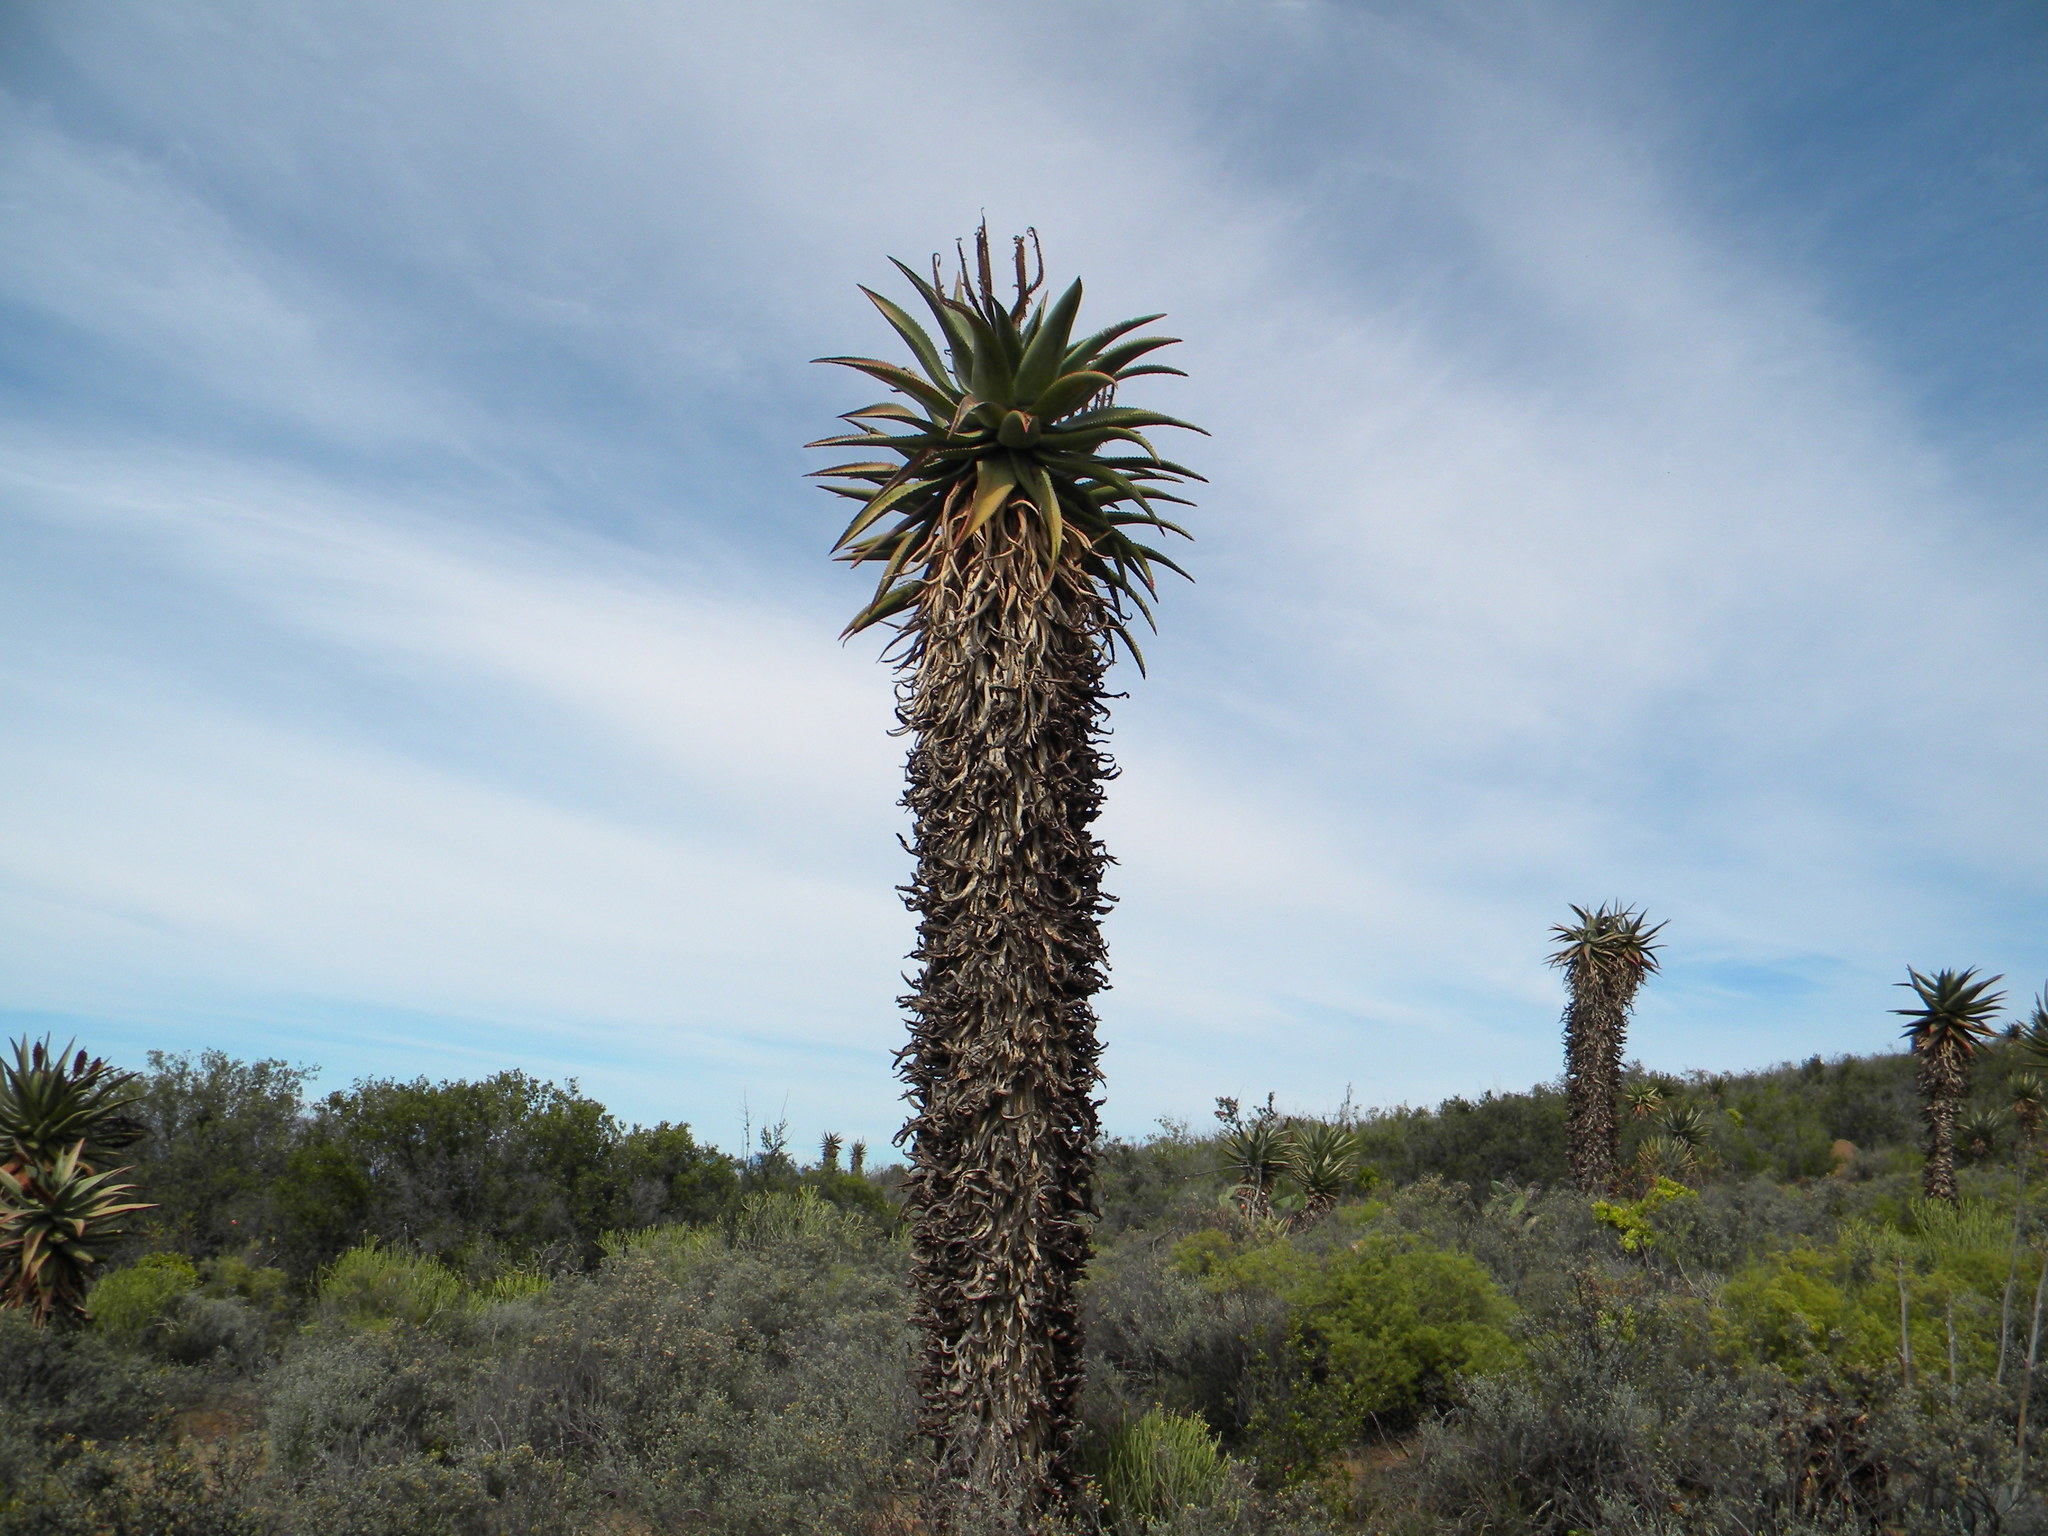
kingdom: Plantae
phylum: Tracheophyta
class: Liliopsida
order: Asparagales
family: Asphodelaceae
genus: Aloe
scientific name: Aloe ferox
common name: Bitter aloe
